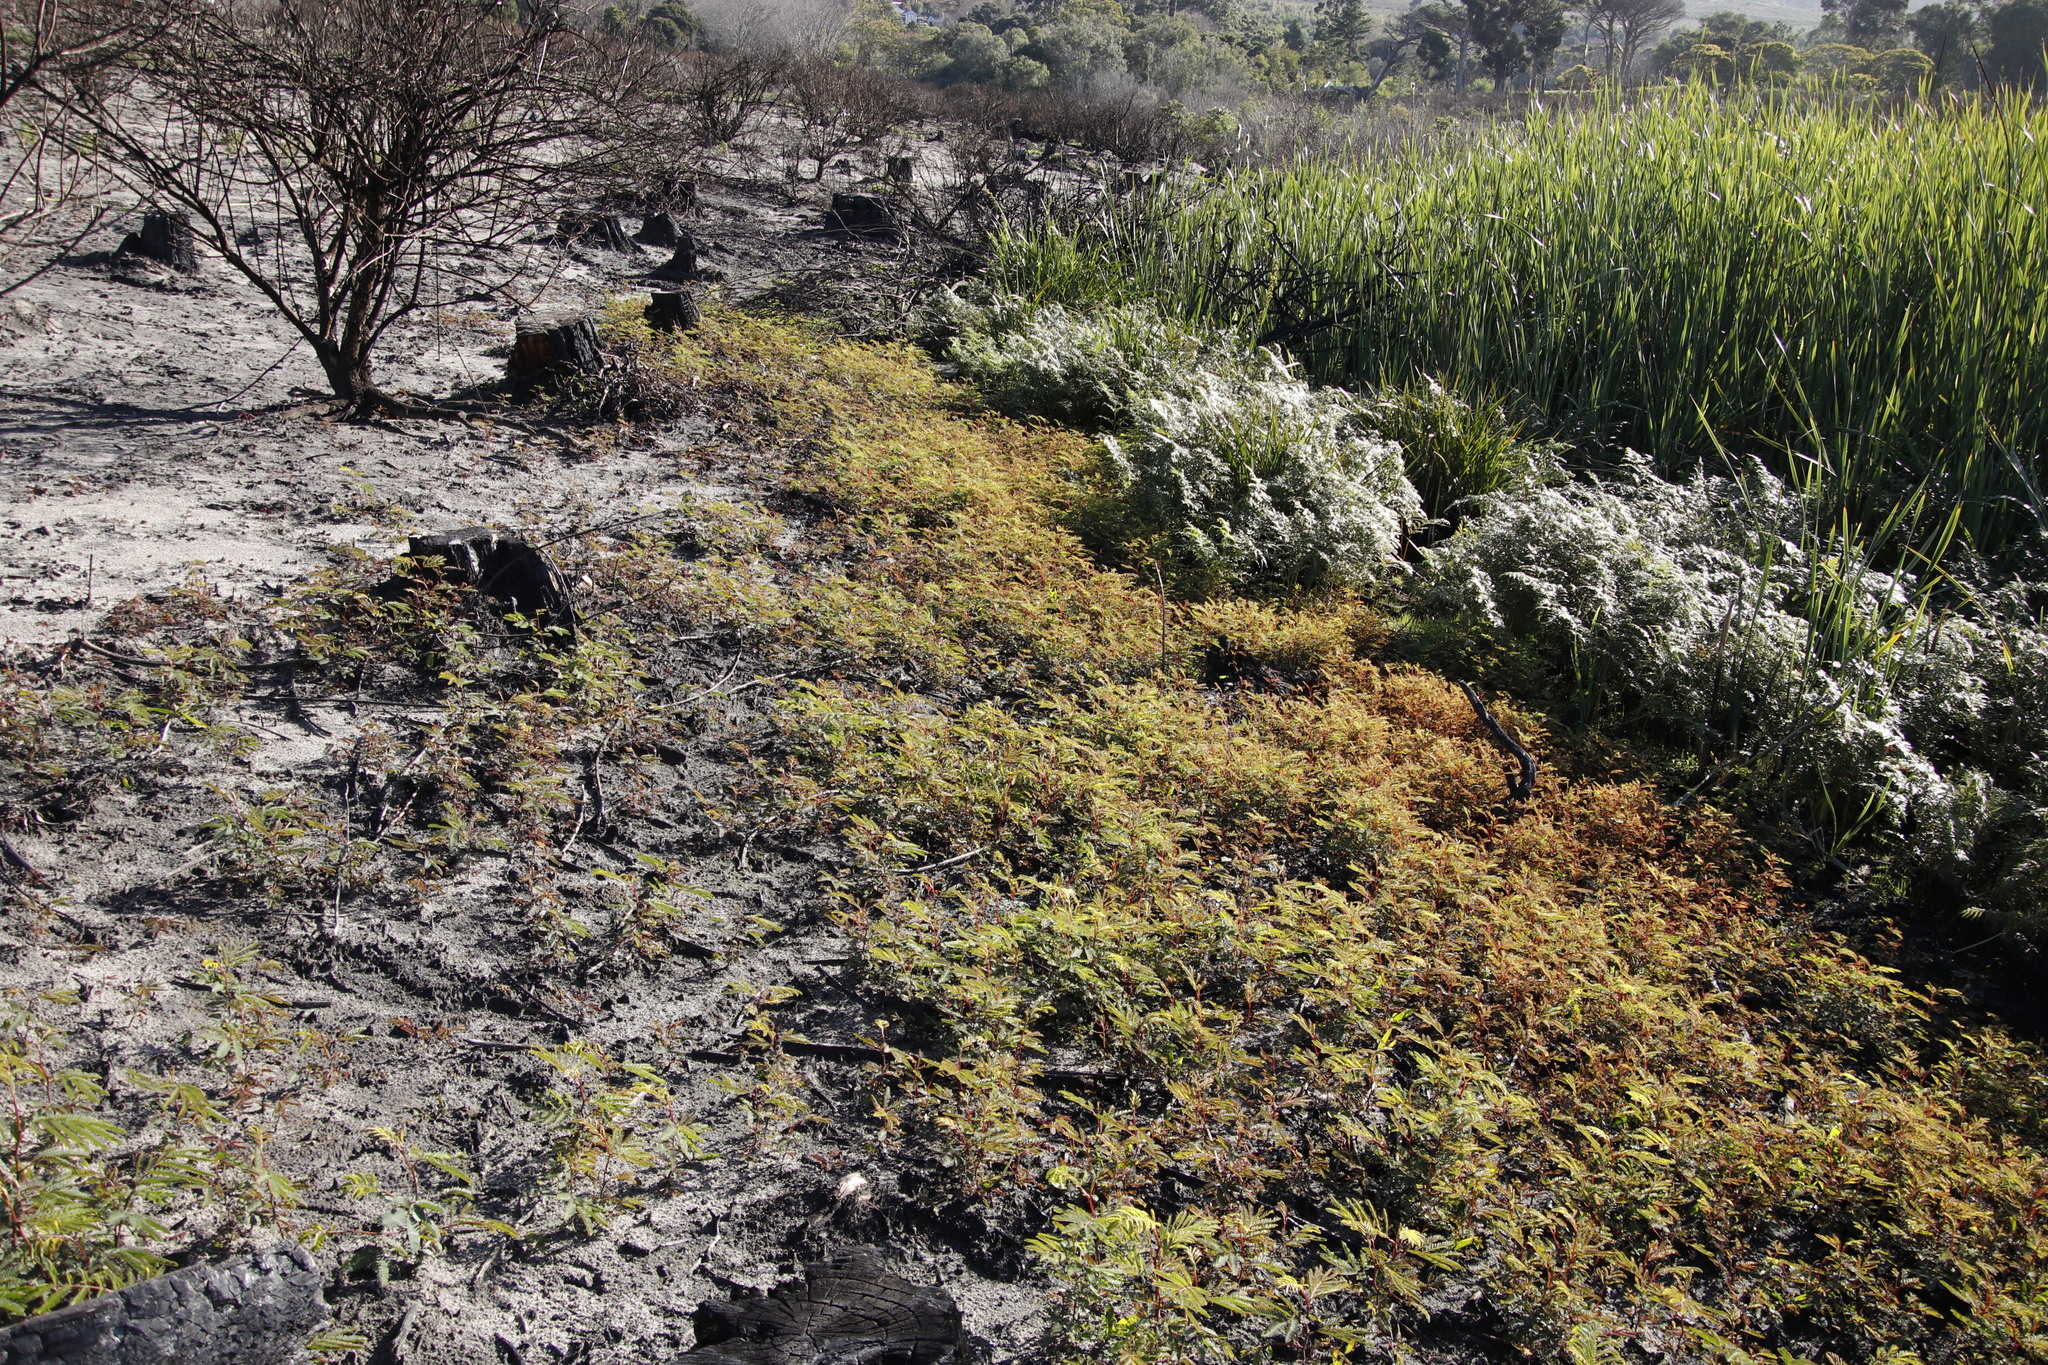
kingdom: Plantae
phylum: Tracheophyta
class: Magnoliopsida
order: Fabales
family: Fabaceae
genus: Paraserianthes
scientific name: Paraserianthes lophantha
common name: Plume albizia
